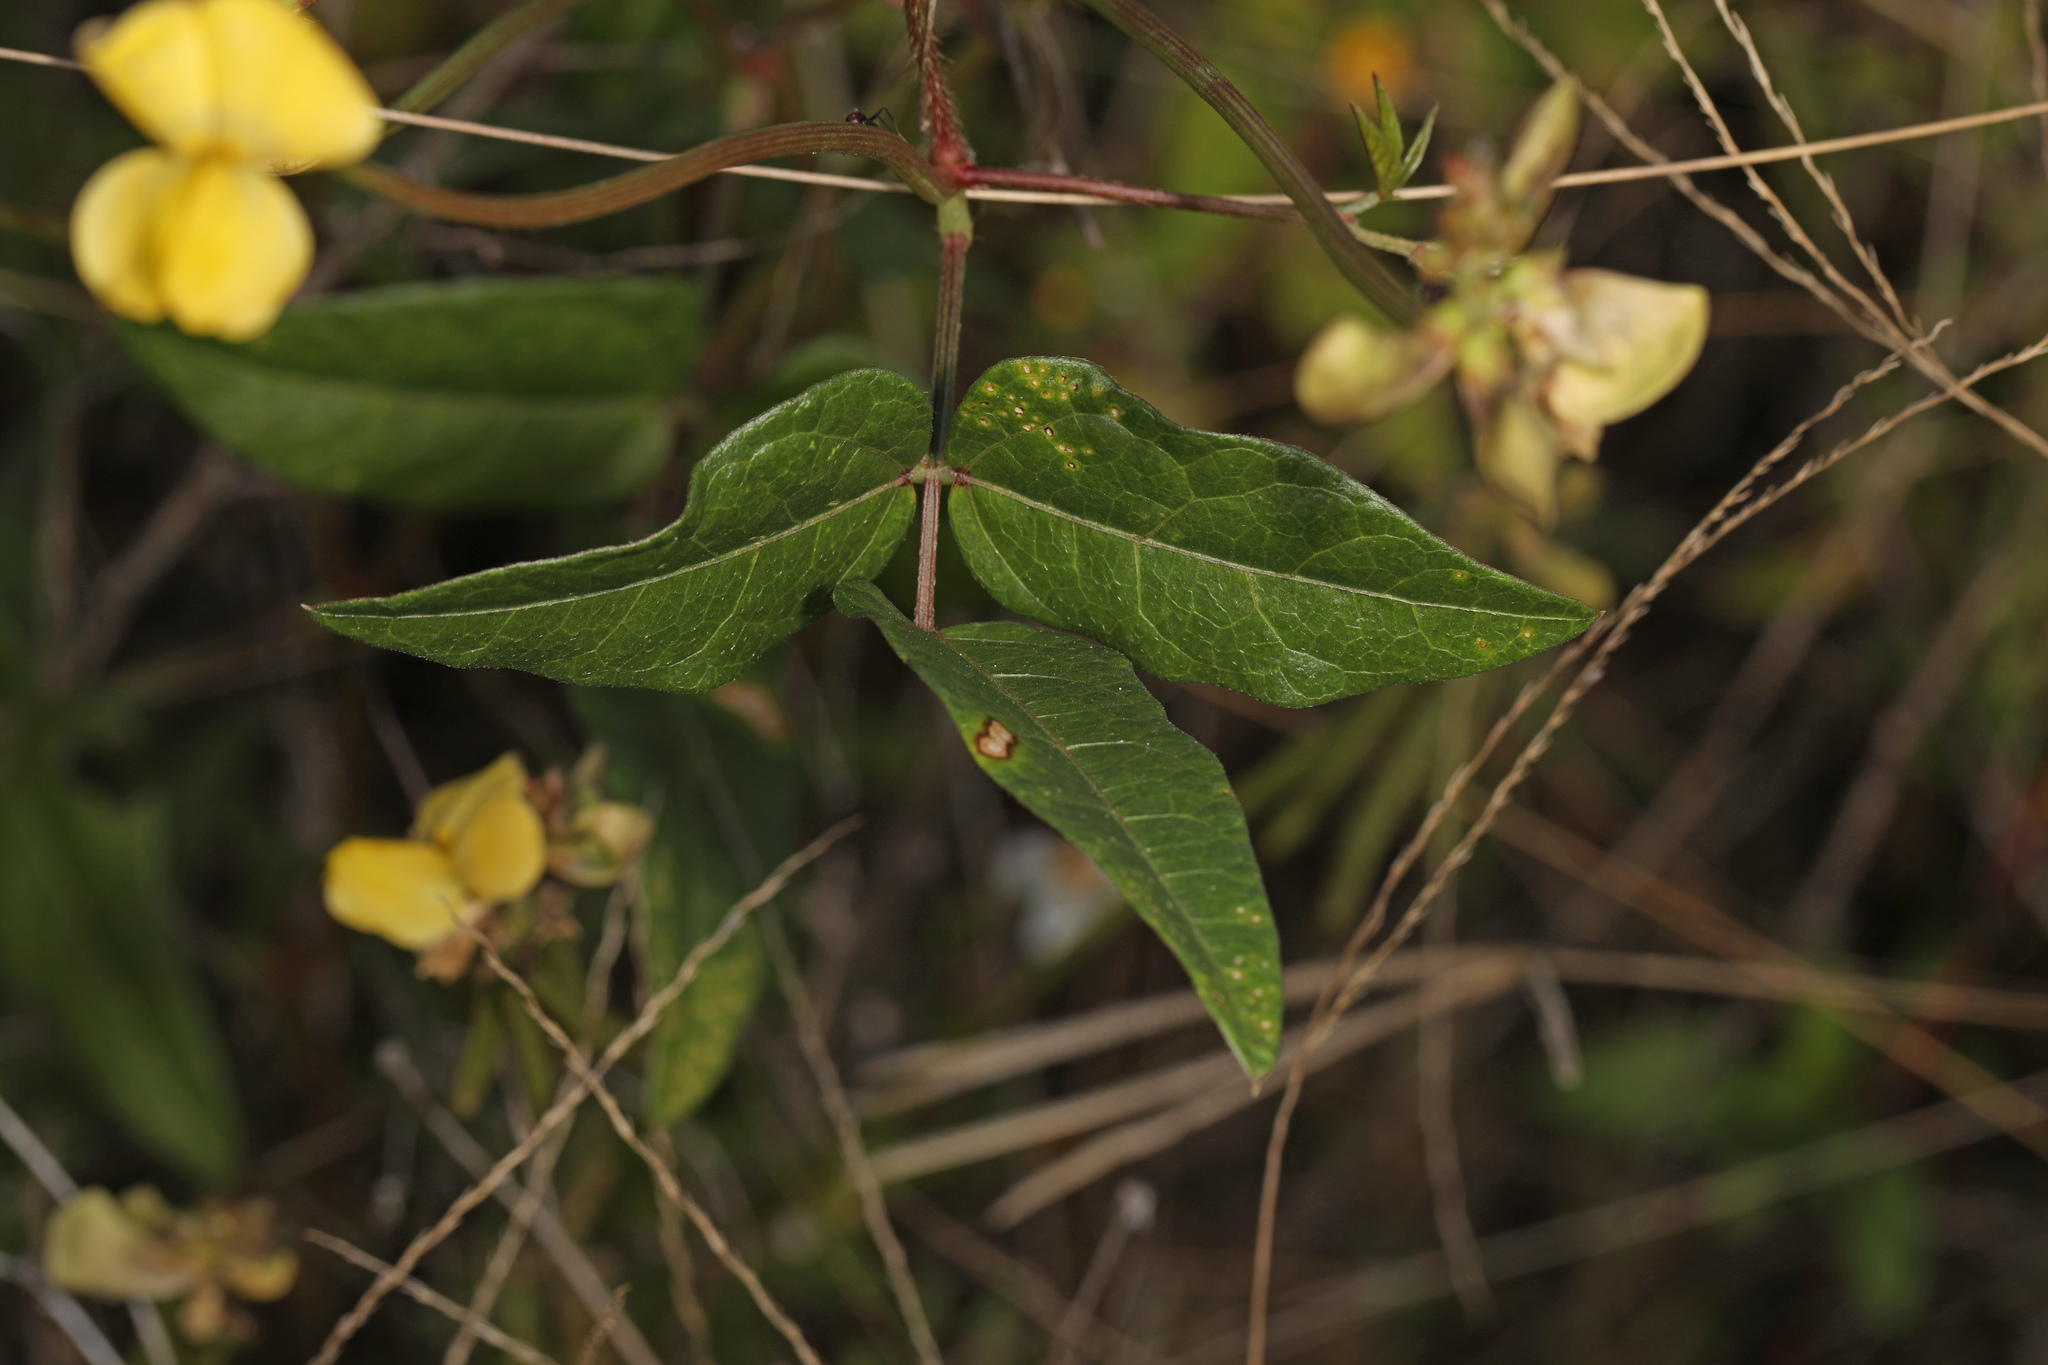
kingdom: Plantae
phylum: Tracheophyta
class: Magnoliopsida
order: Fabales
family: Fabaceae
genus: Vigna
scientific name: Vigna luteola
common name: Hairypod cowpea
